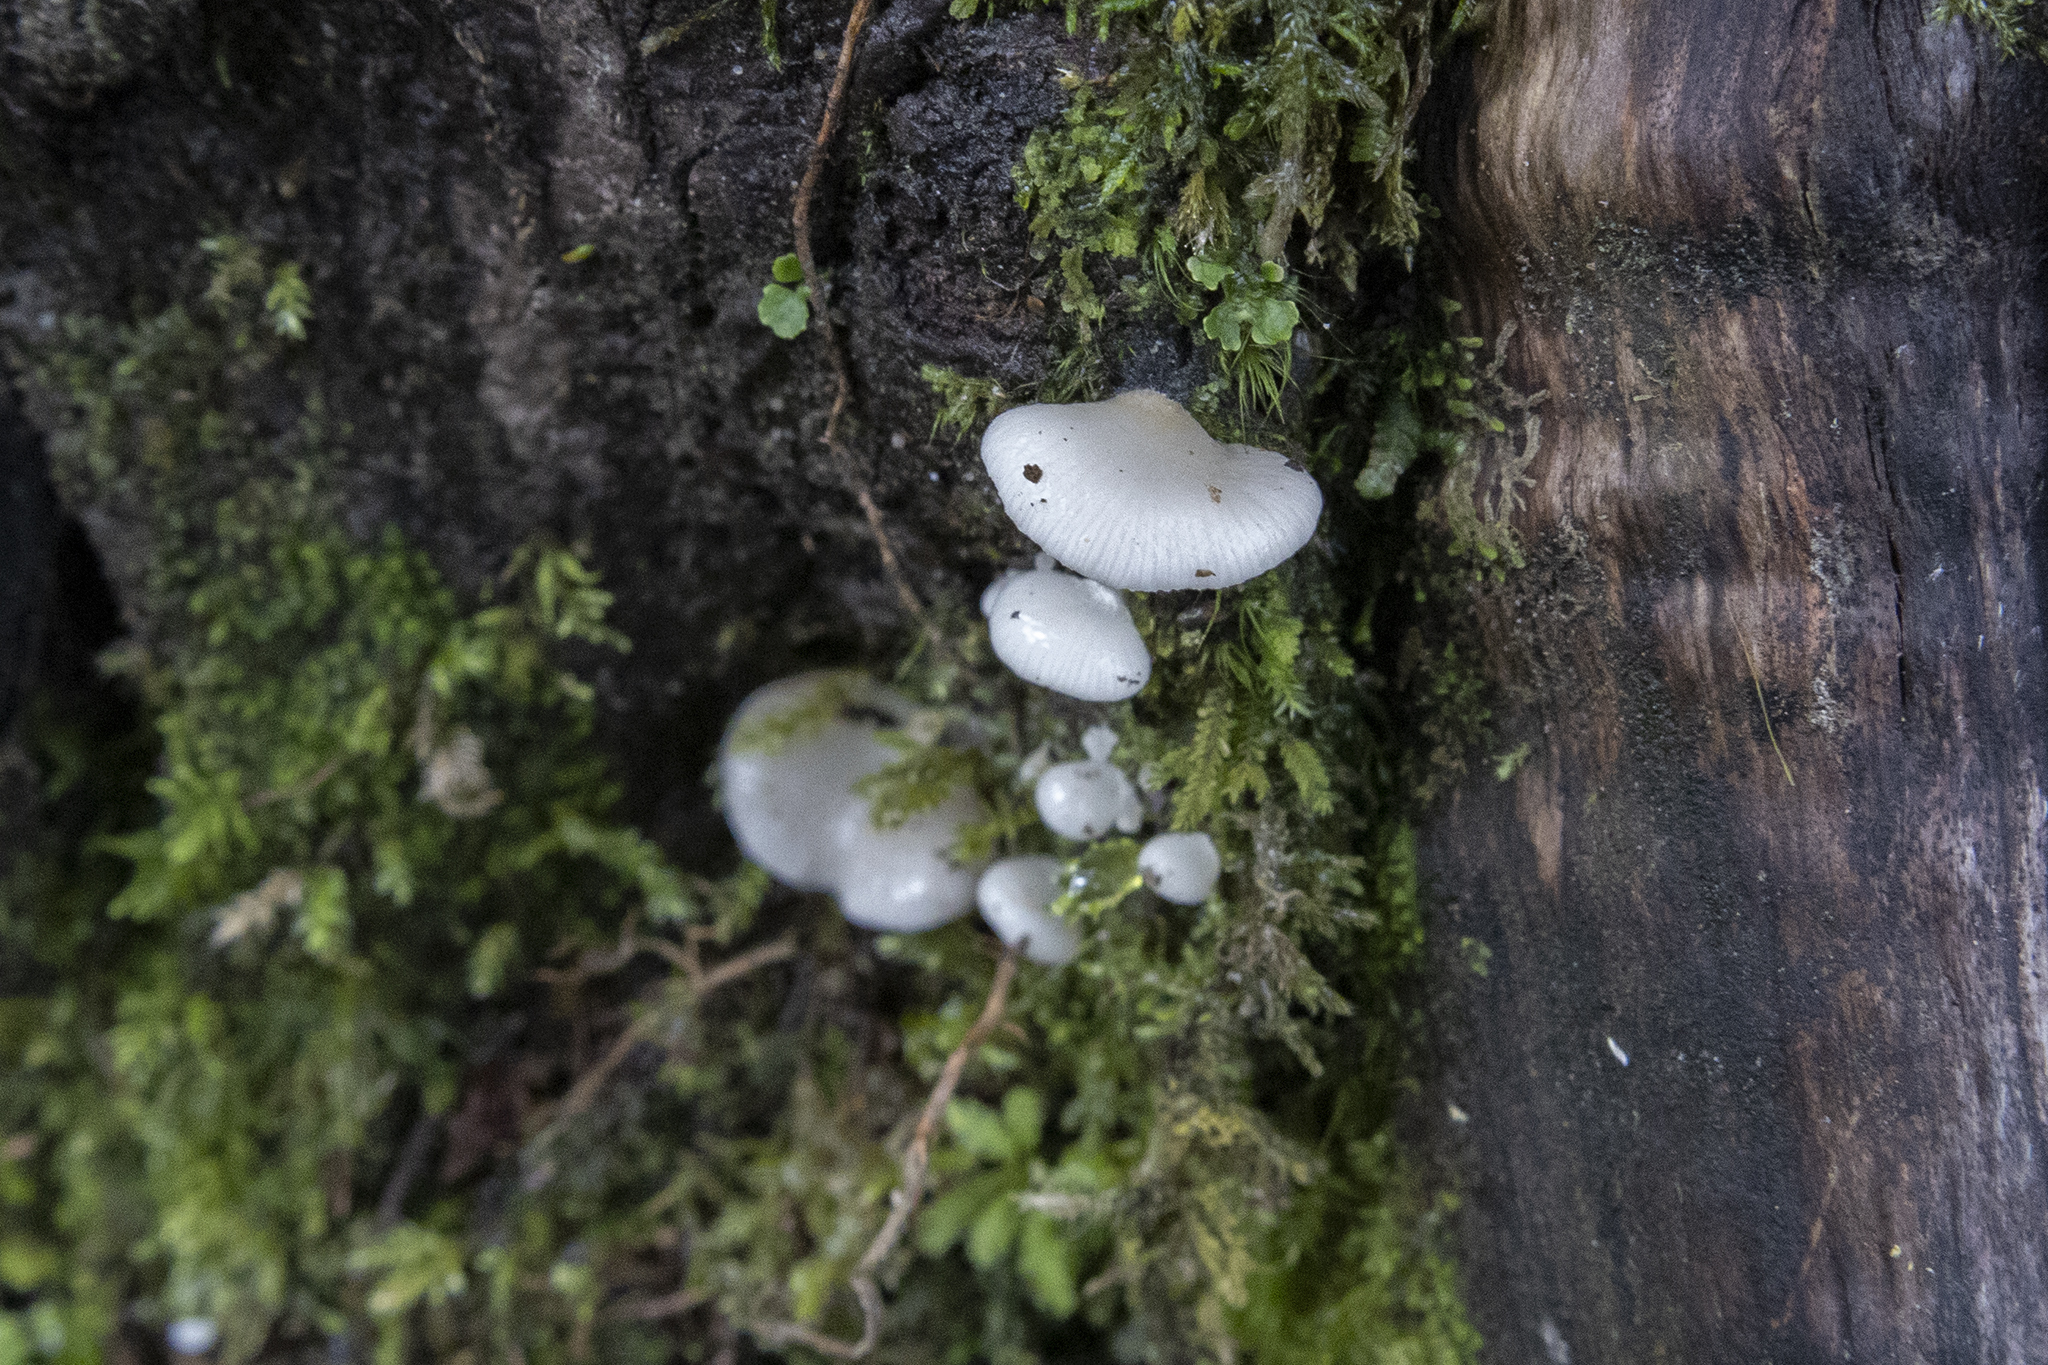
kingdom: Fungi
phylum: Basidiomycota
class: Agaricomycetes
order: Agaricales
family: Mycenaceae
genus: Panellus
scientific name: Panellus longinquus
